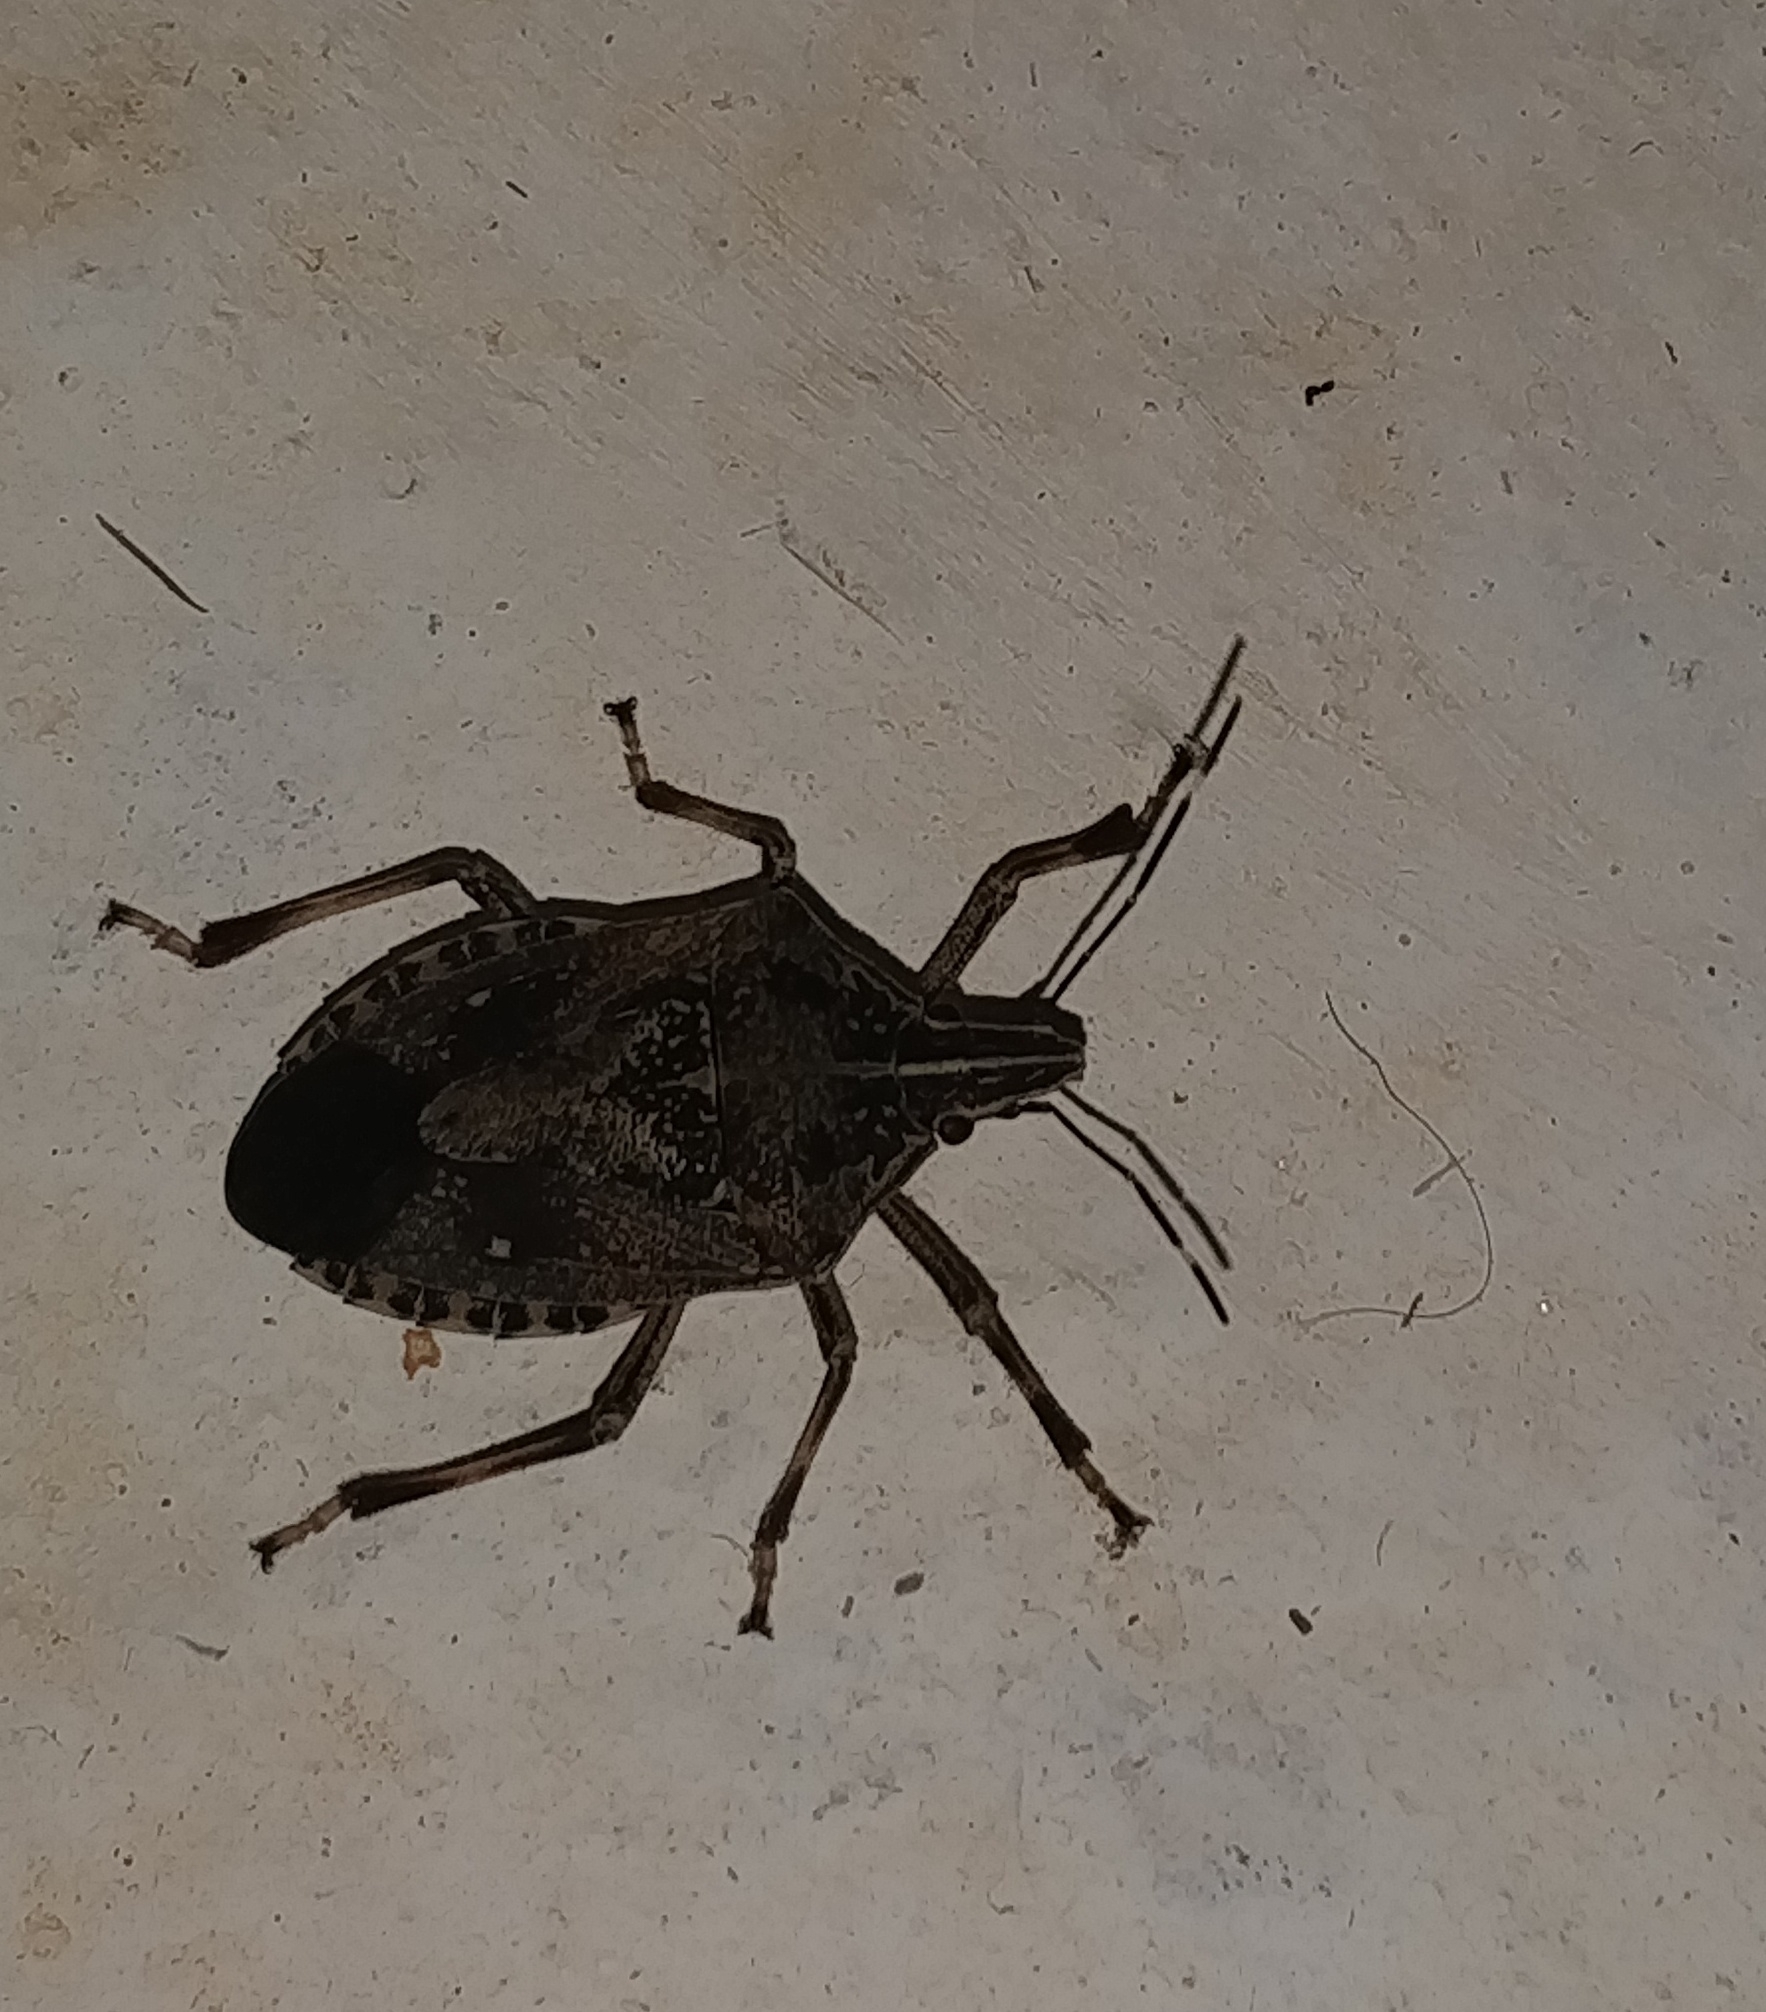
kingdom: Animalia
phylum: Arthropoda
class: Insecta
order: Hemiptera
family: Pentatomidae
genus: Erthesina
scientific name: Erthesina acuminata
